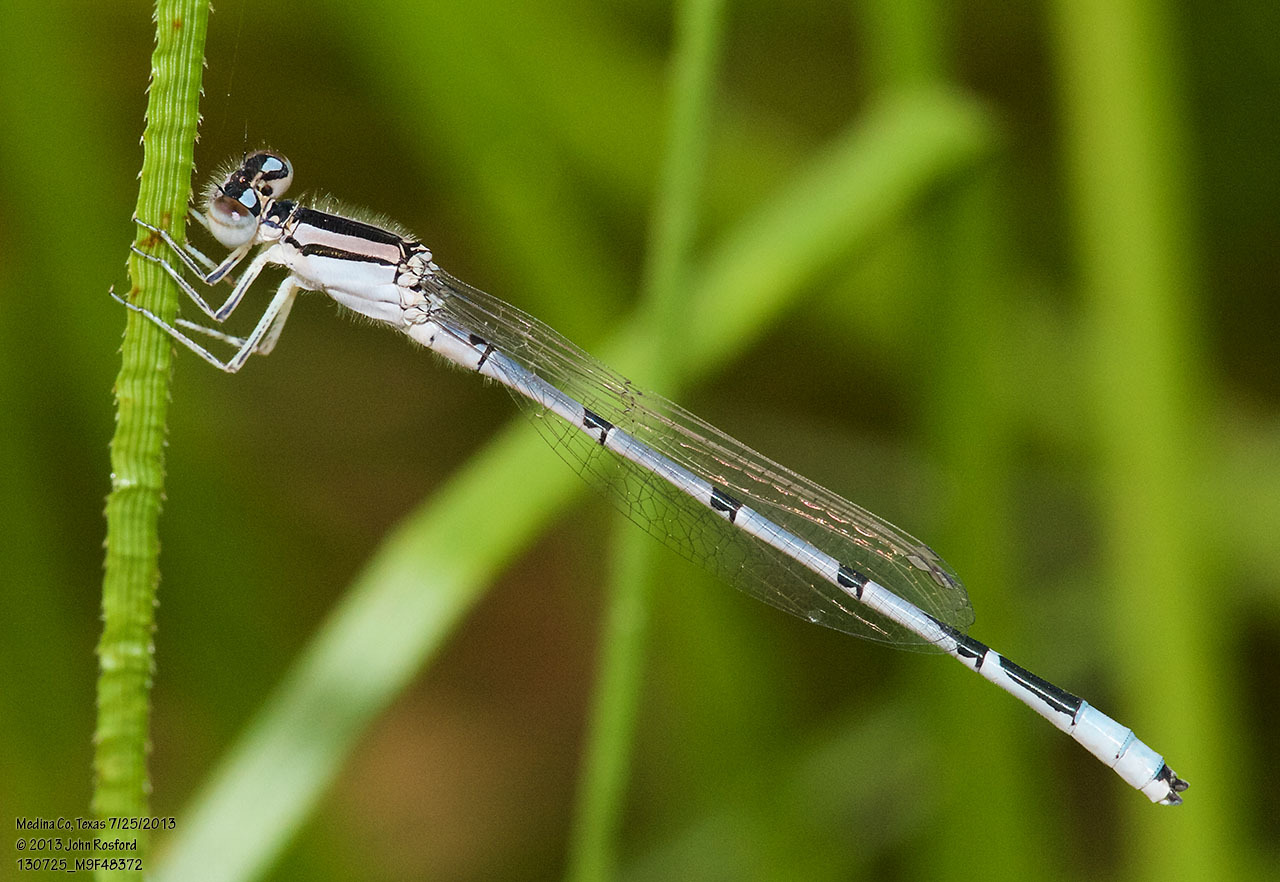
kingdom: Animalia
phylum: Arthropoda
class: Insecta
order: Odonata
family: Coenagrionidae
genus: Enallagma
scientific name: Enallagma civile
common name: Damselfly
